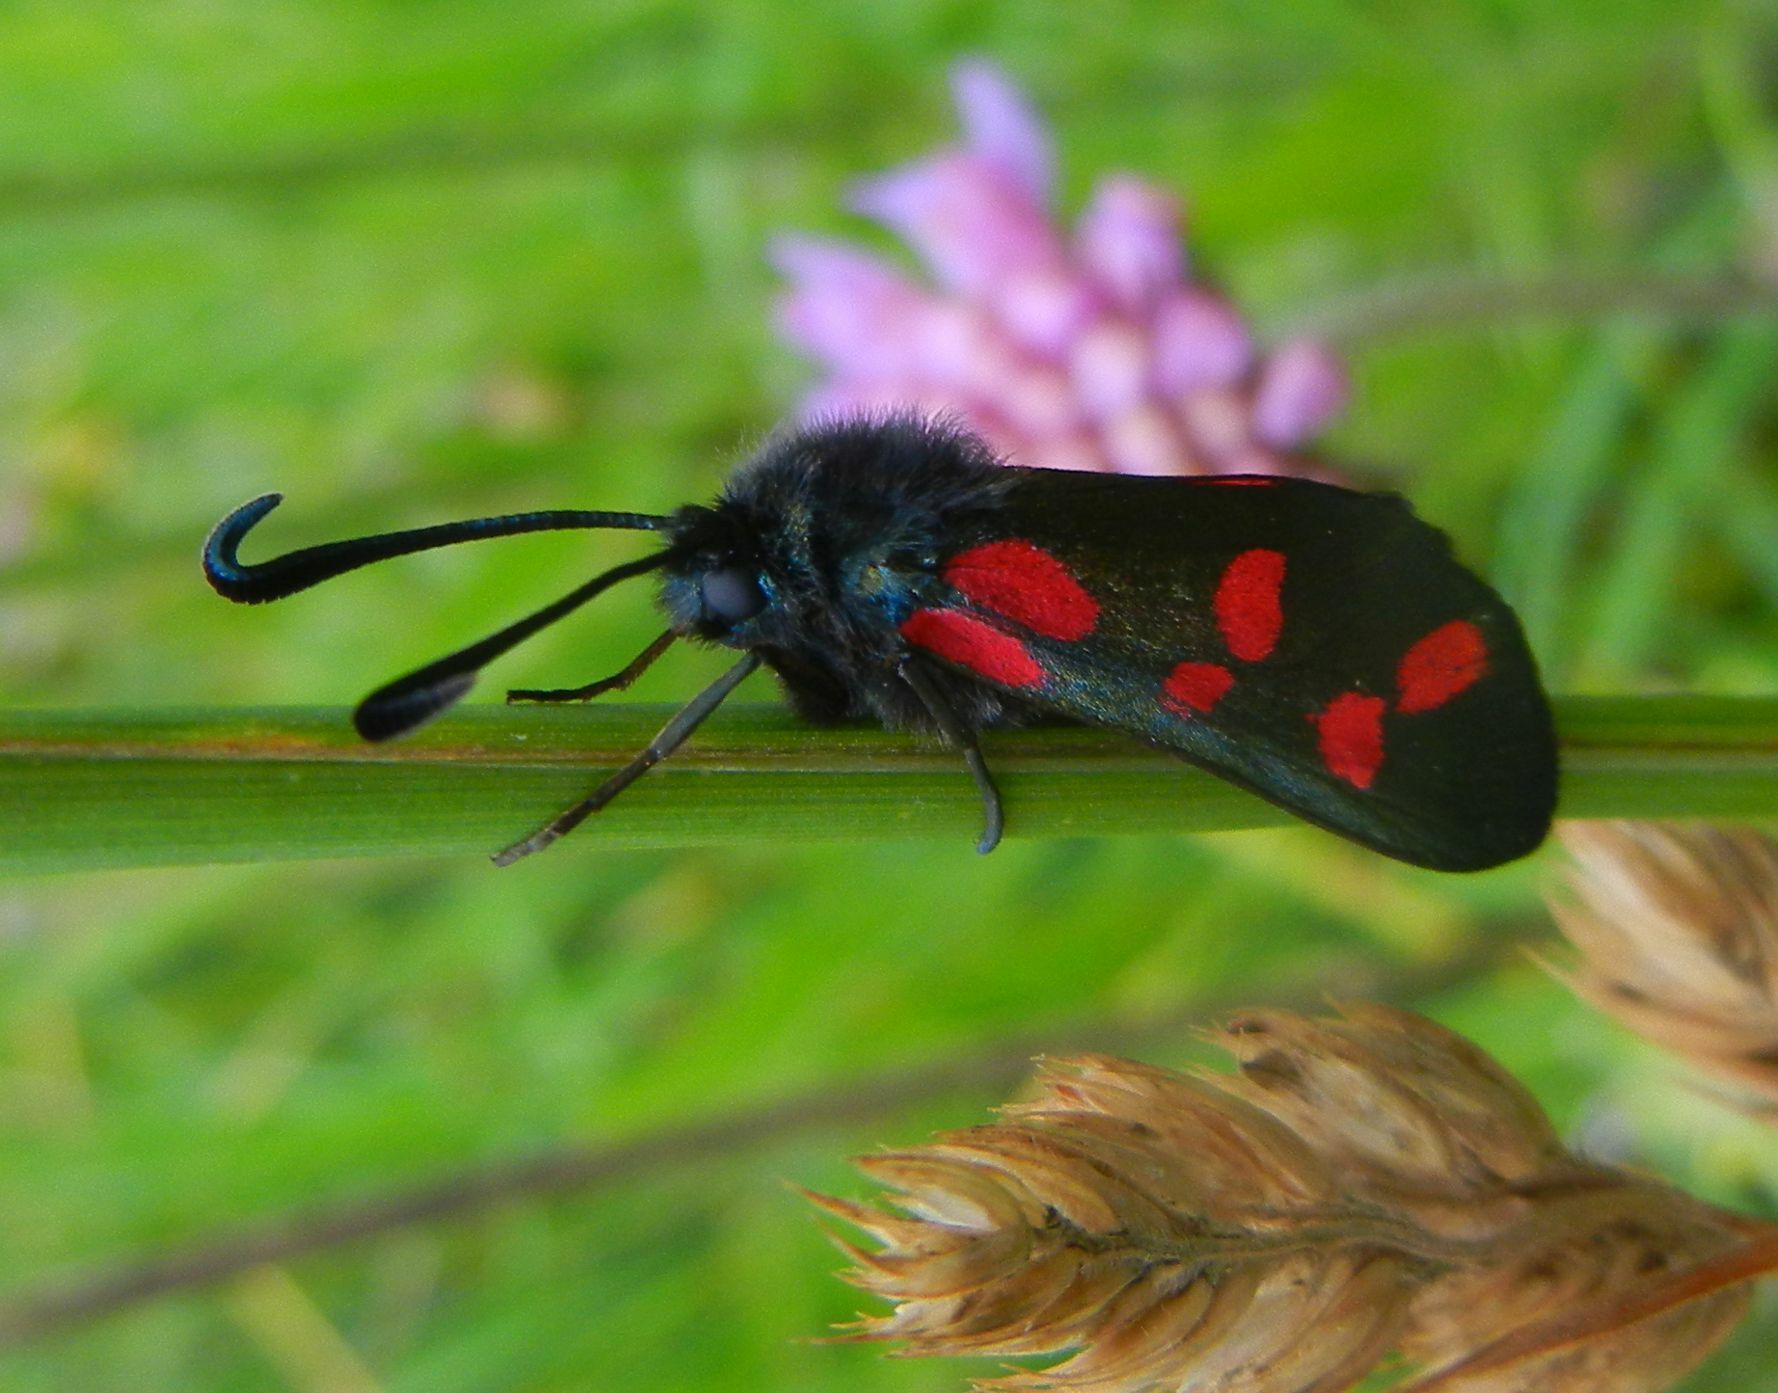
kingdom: Animalia
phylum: Arthropoda
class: Insecta
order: Lepidoptera
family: Zygaenidae
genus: Zygaena
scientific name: Zygaena filipendulae
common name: Six-spot burnet
